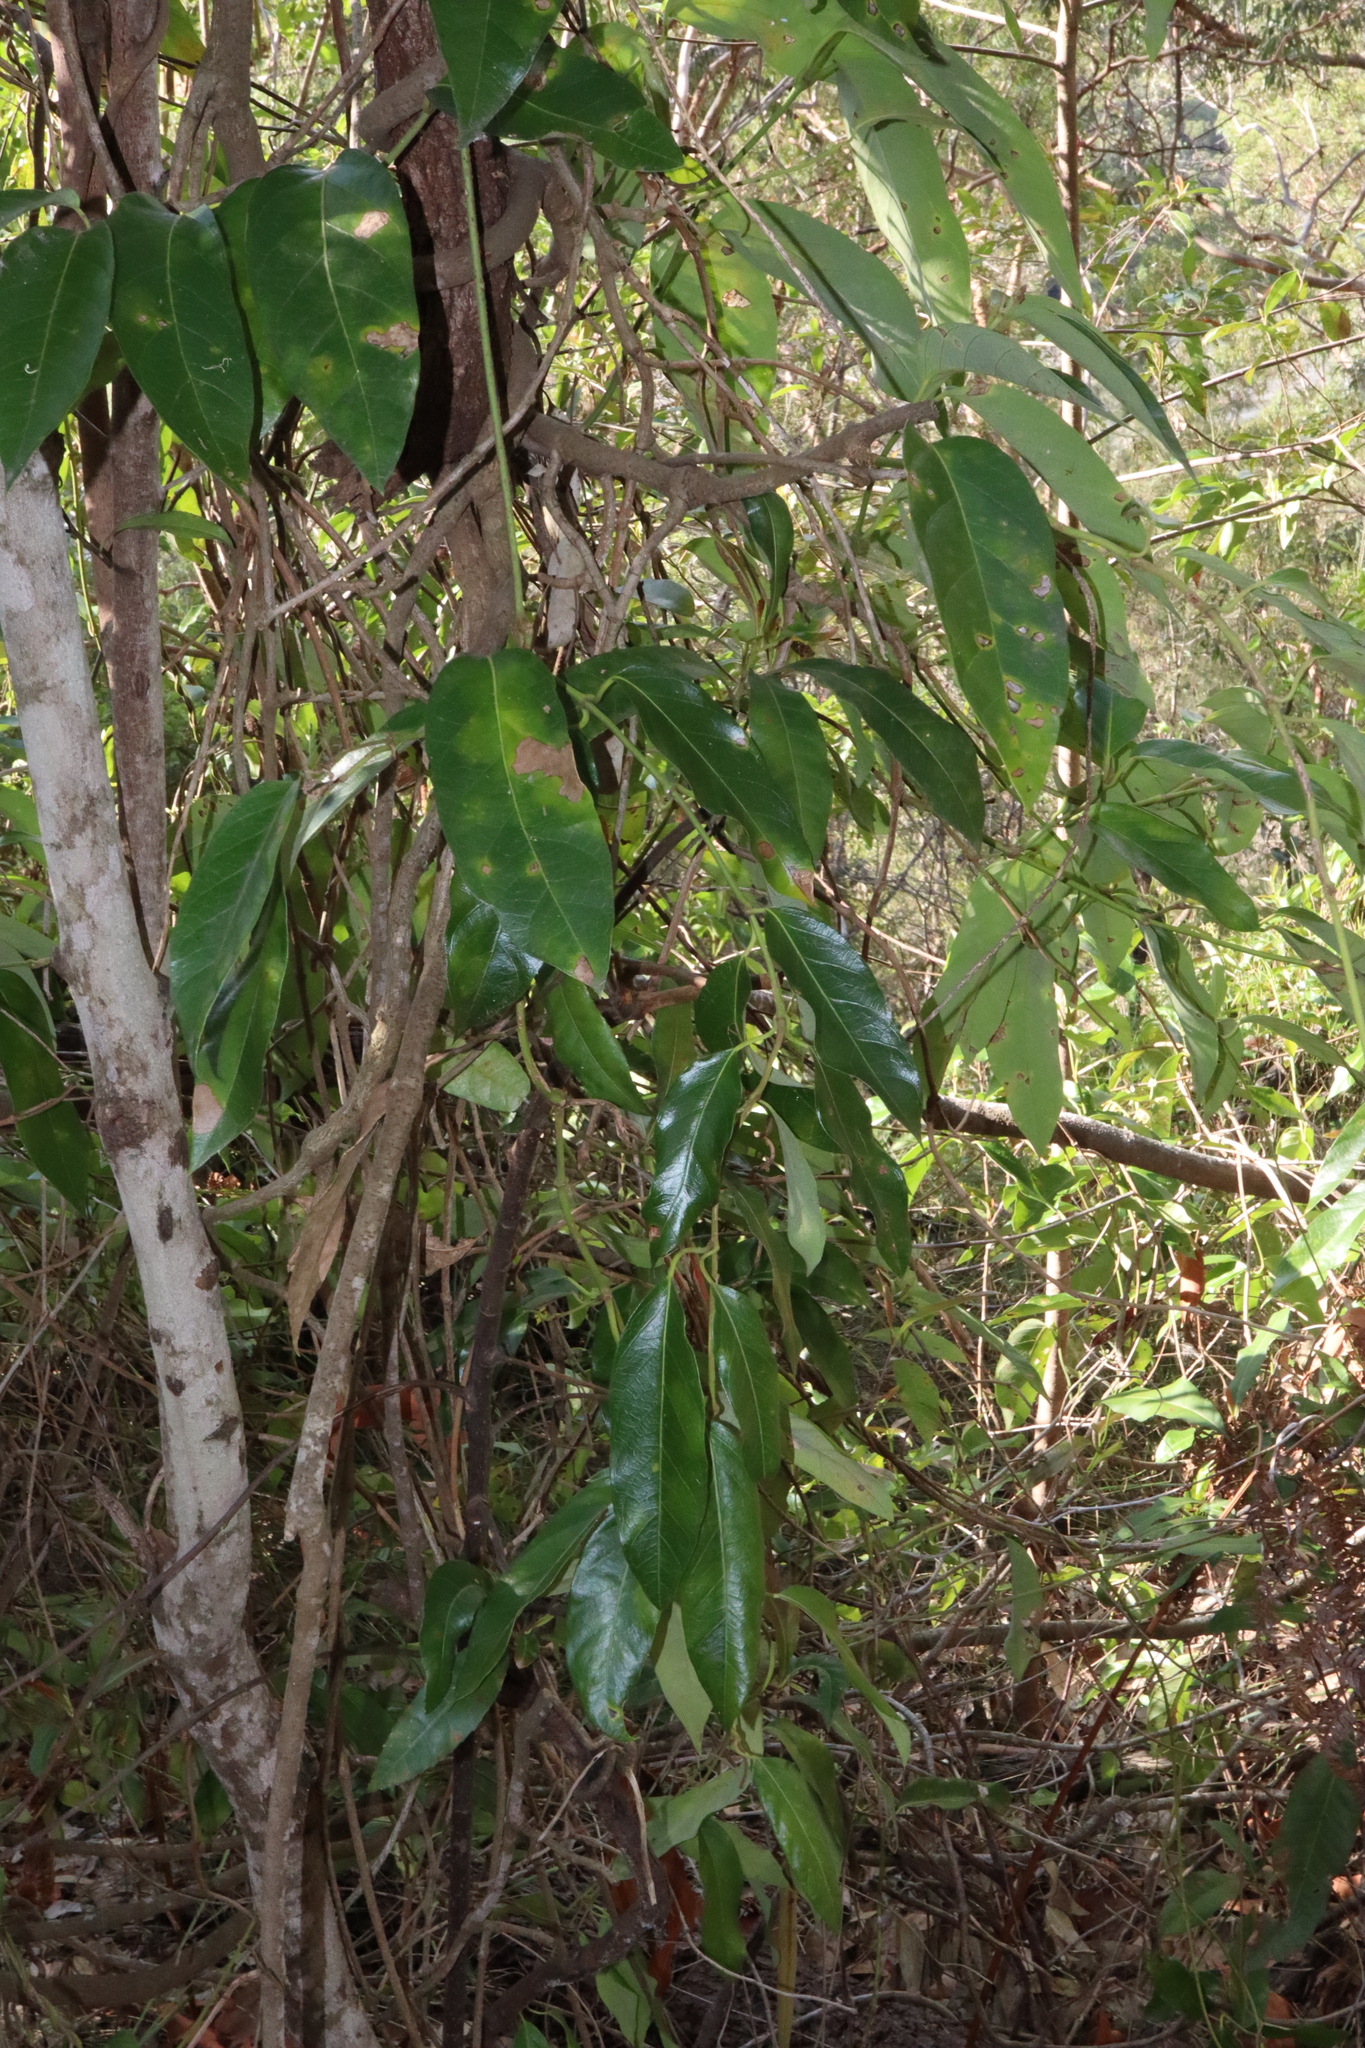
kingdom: Plantae
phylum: Tracheophyta
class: Magnoliopsida
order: Gentianales
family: Apocynaceae
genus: Parsonsia
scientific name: Parsonsia straminea
